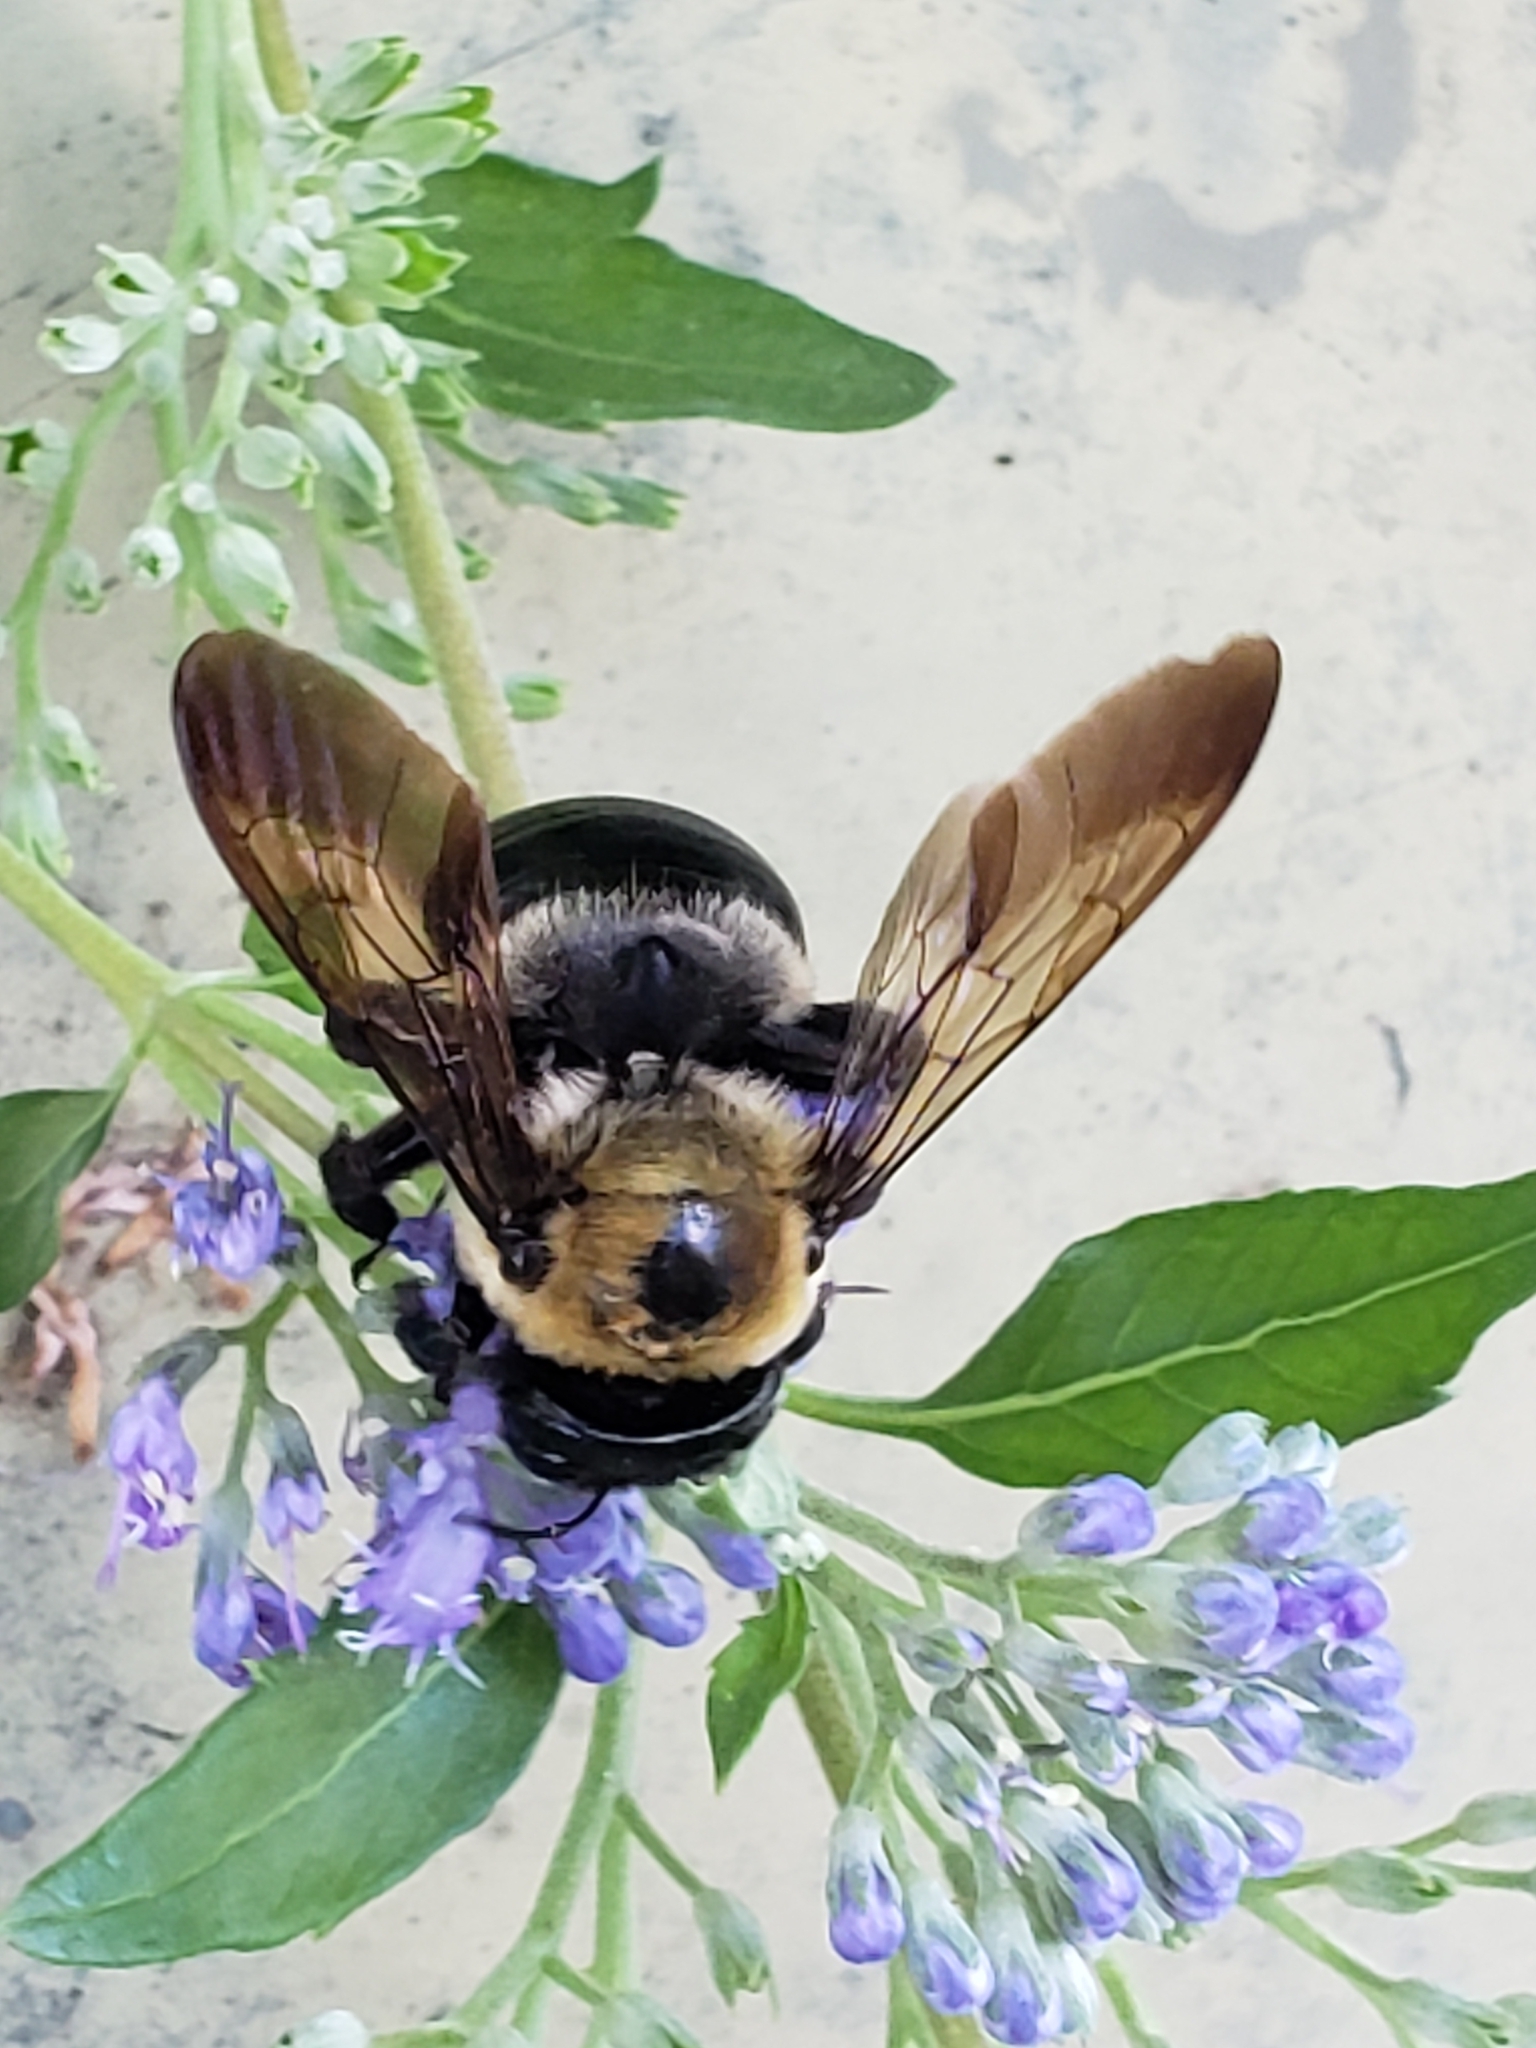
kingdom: Animalia
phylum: Arthropoda
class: Insecta
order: Hymenoptera
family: Apidae
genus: Xylocopa
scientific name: Xylocopa virginica
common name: Carpenter bee
